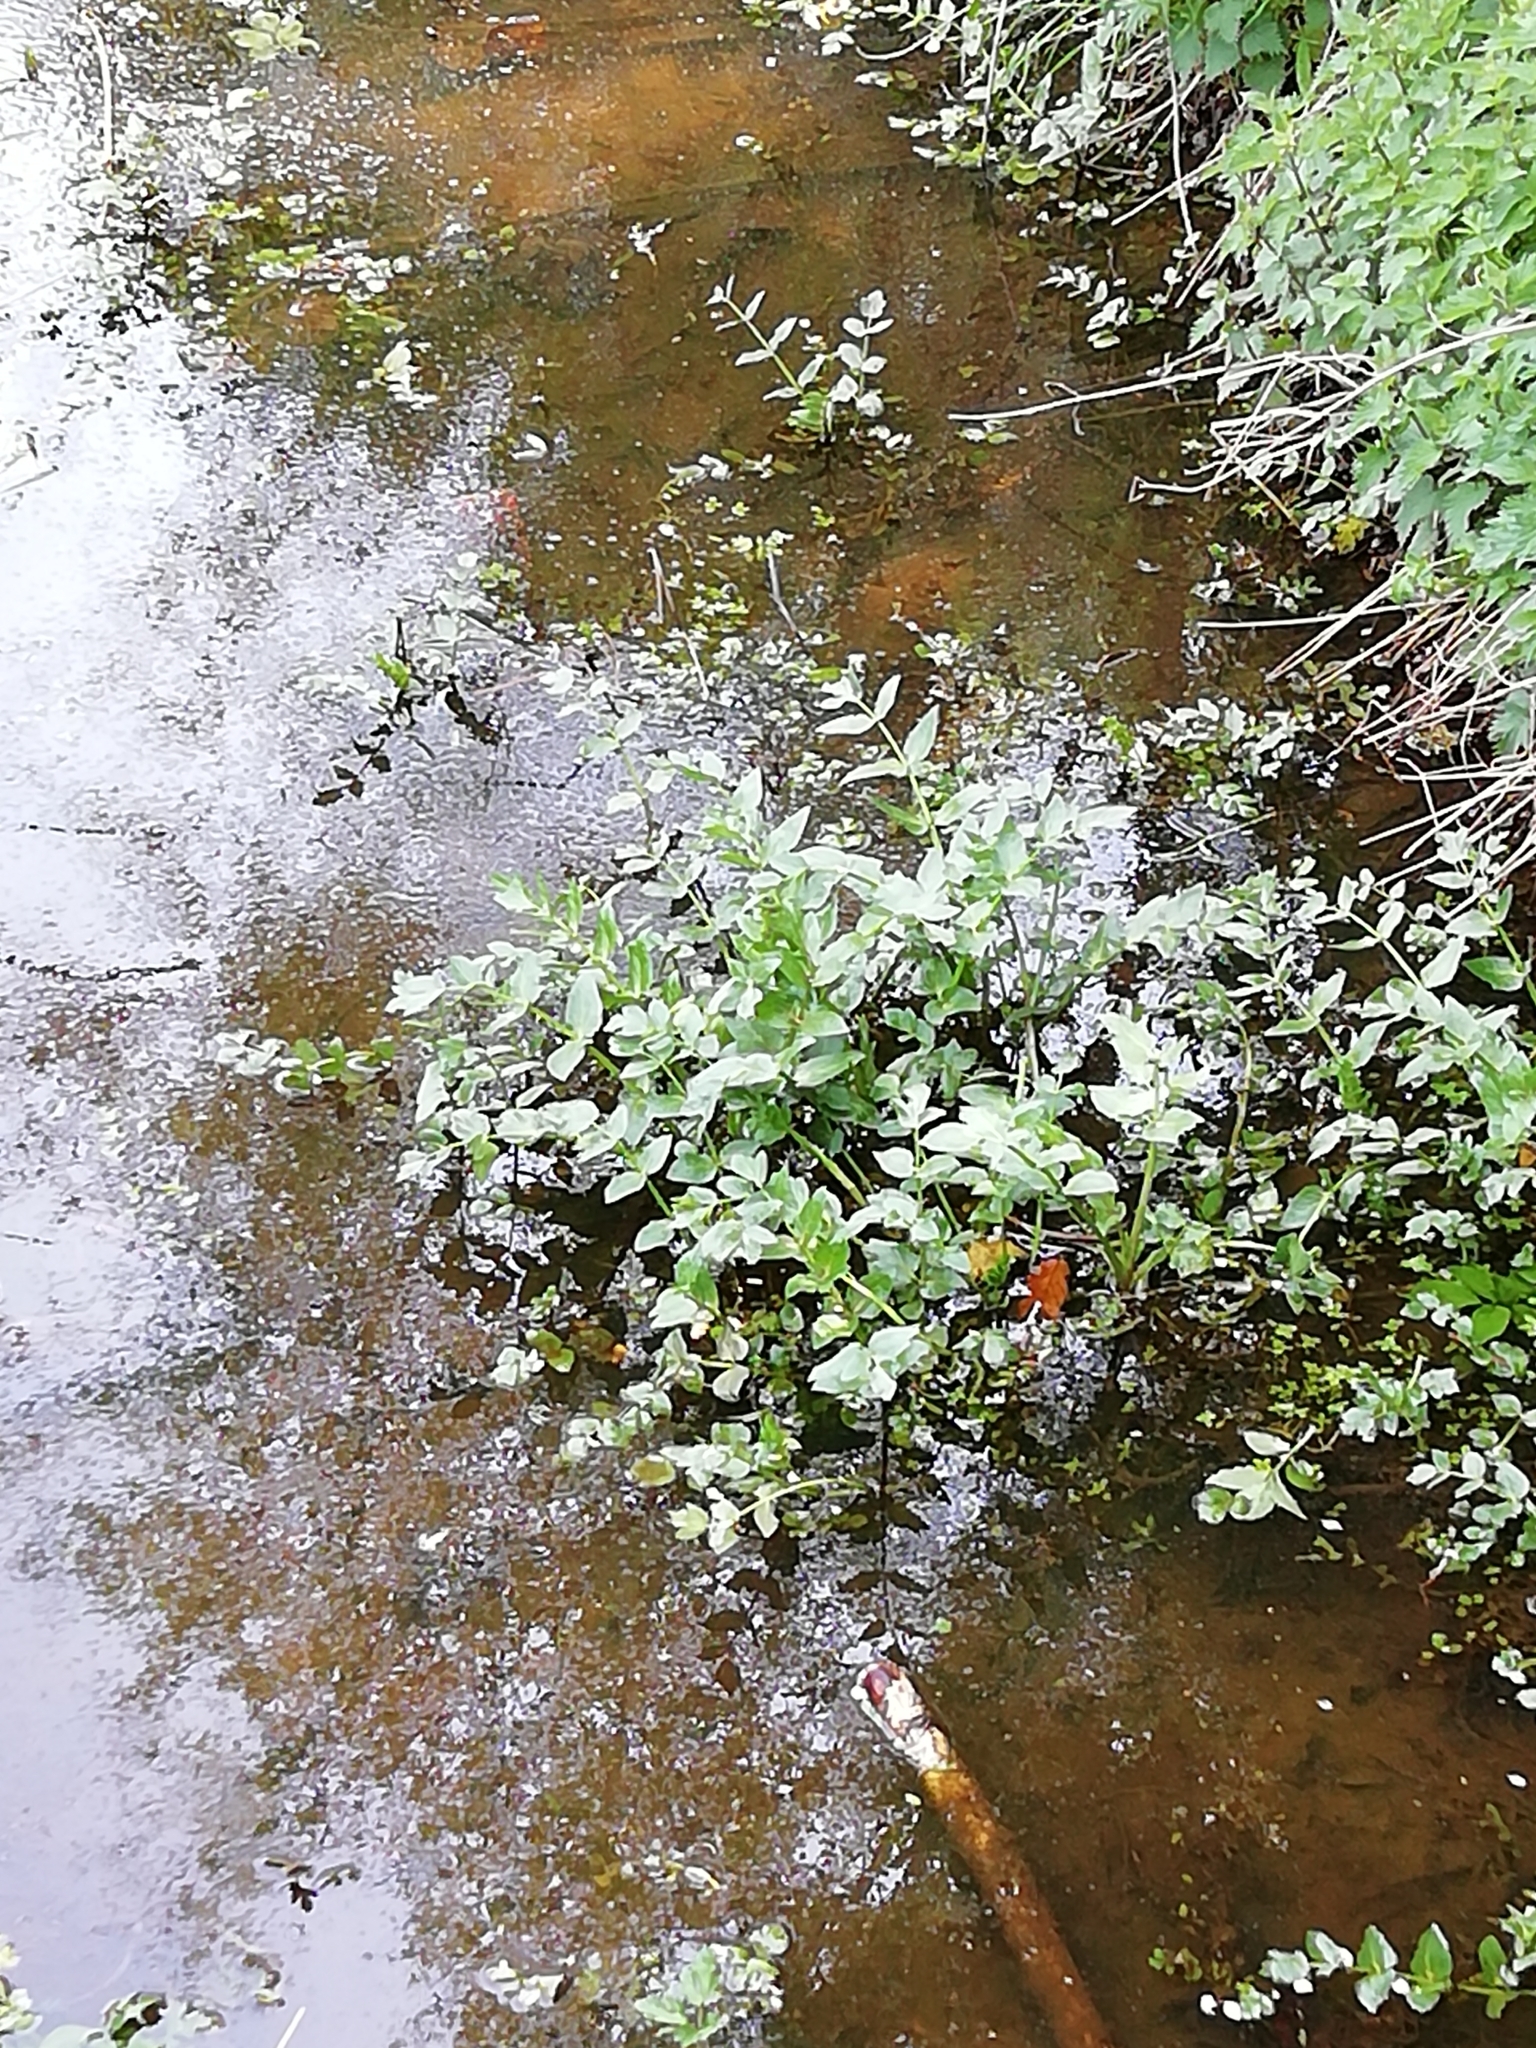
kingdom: Plantae
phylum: Tracheophyta
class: Magnoliopsida
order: Apiales
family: Apiaceae
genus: Helosciadium
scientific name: Helosciadium nodiflorum
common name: Fool's-watercress
